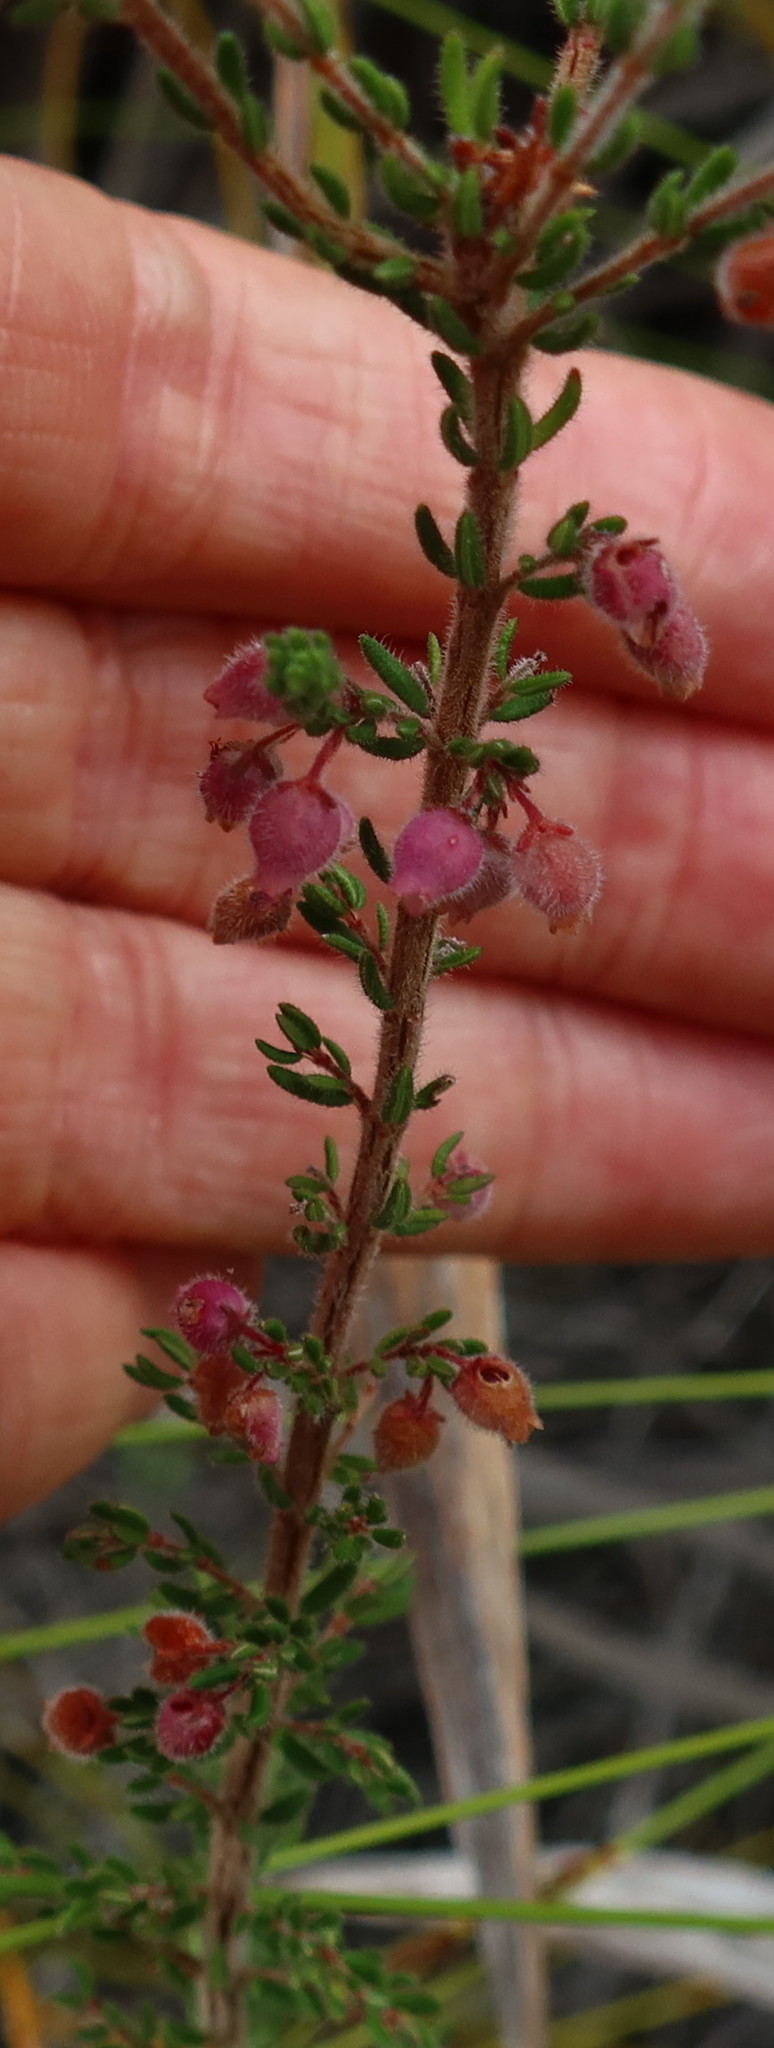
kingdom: Plantae
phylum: Tracheophyta
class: Magnoliopsida
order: Ericales
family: Ericaceae
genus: Erica
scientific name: Erica hirtiflora
